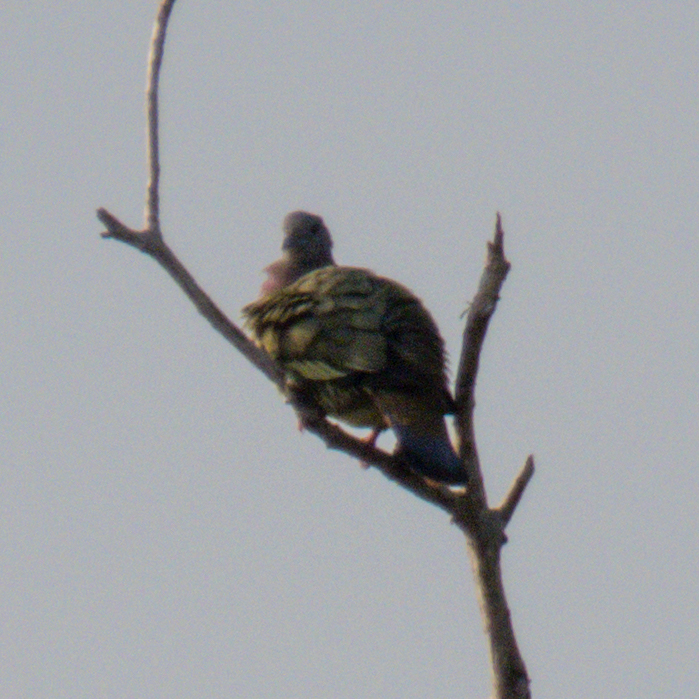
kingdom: Animalia
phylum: Chordata
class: Aves
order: Columbiformes
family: Columbidae
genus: Treron
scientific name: Treron vernans
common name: Pink-necked green pigeon
